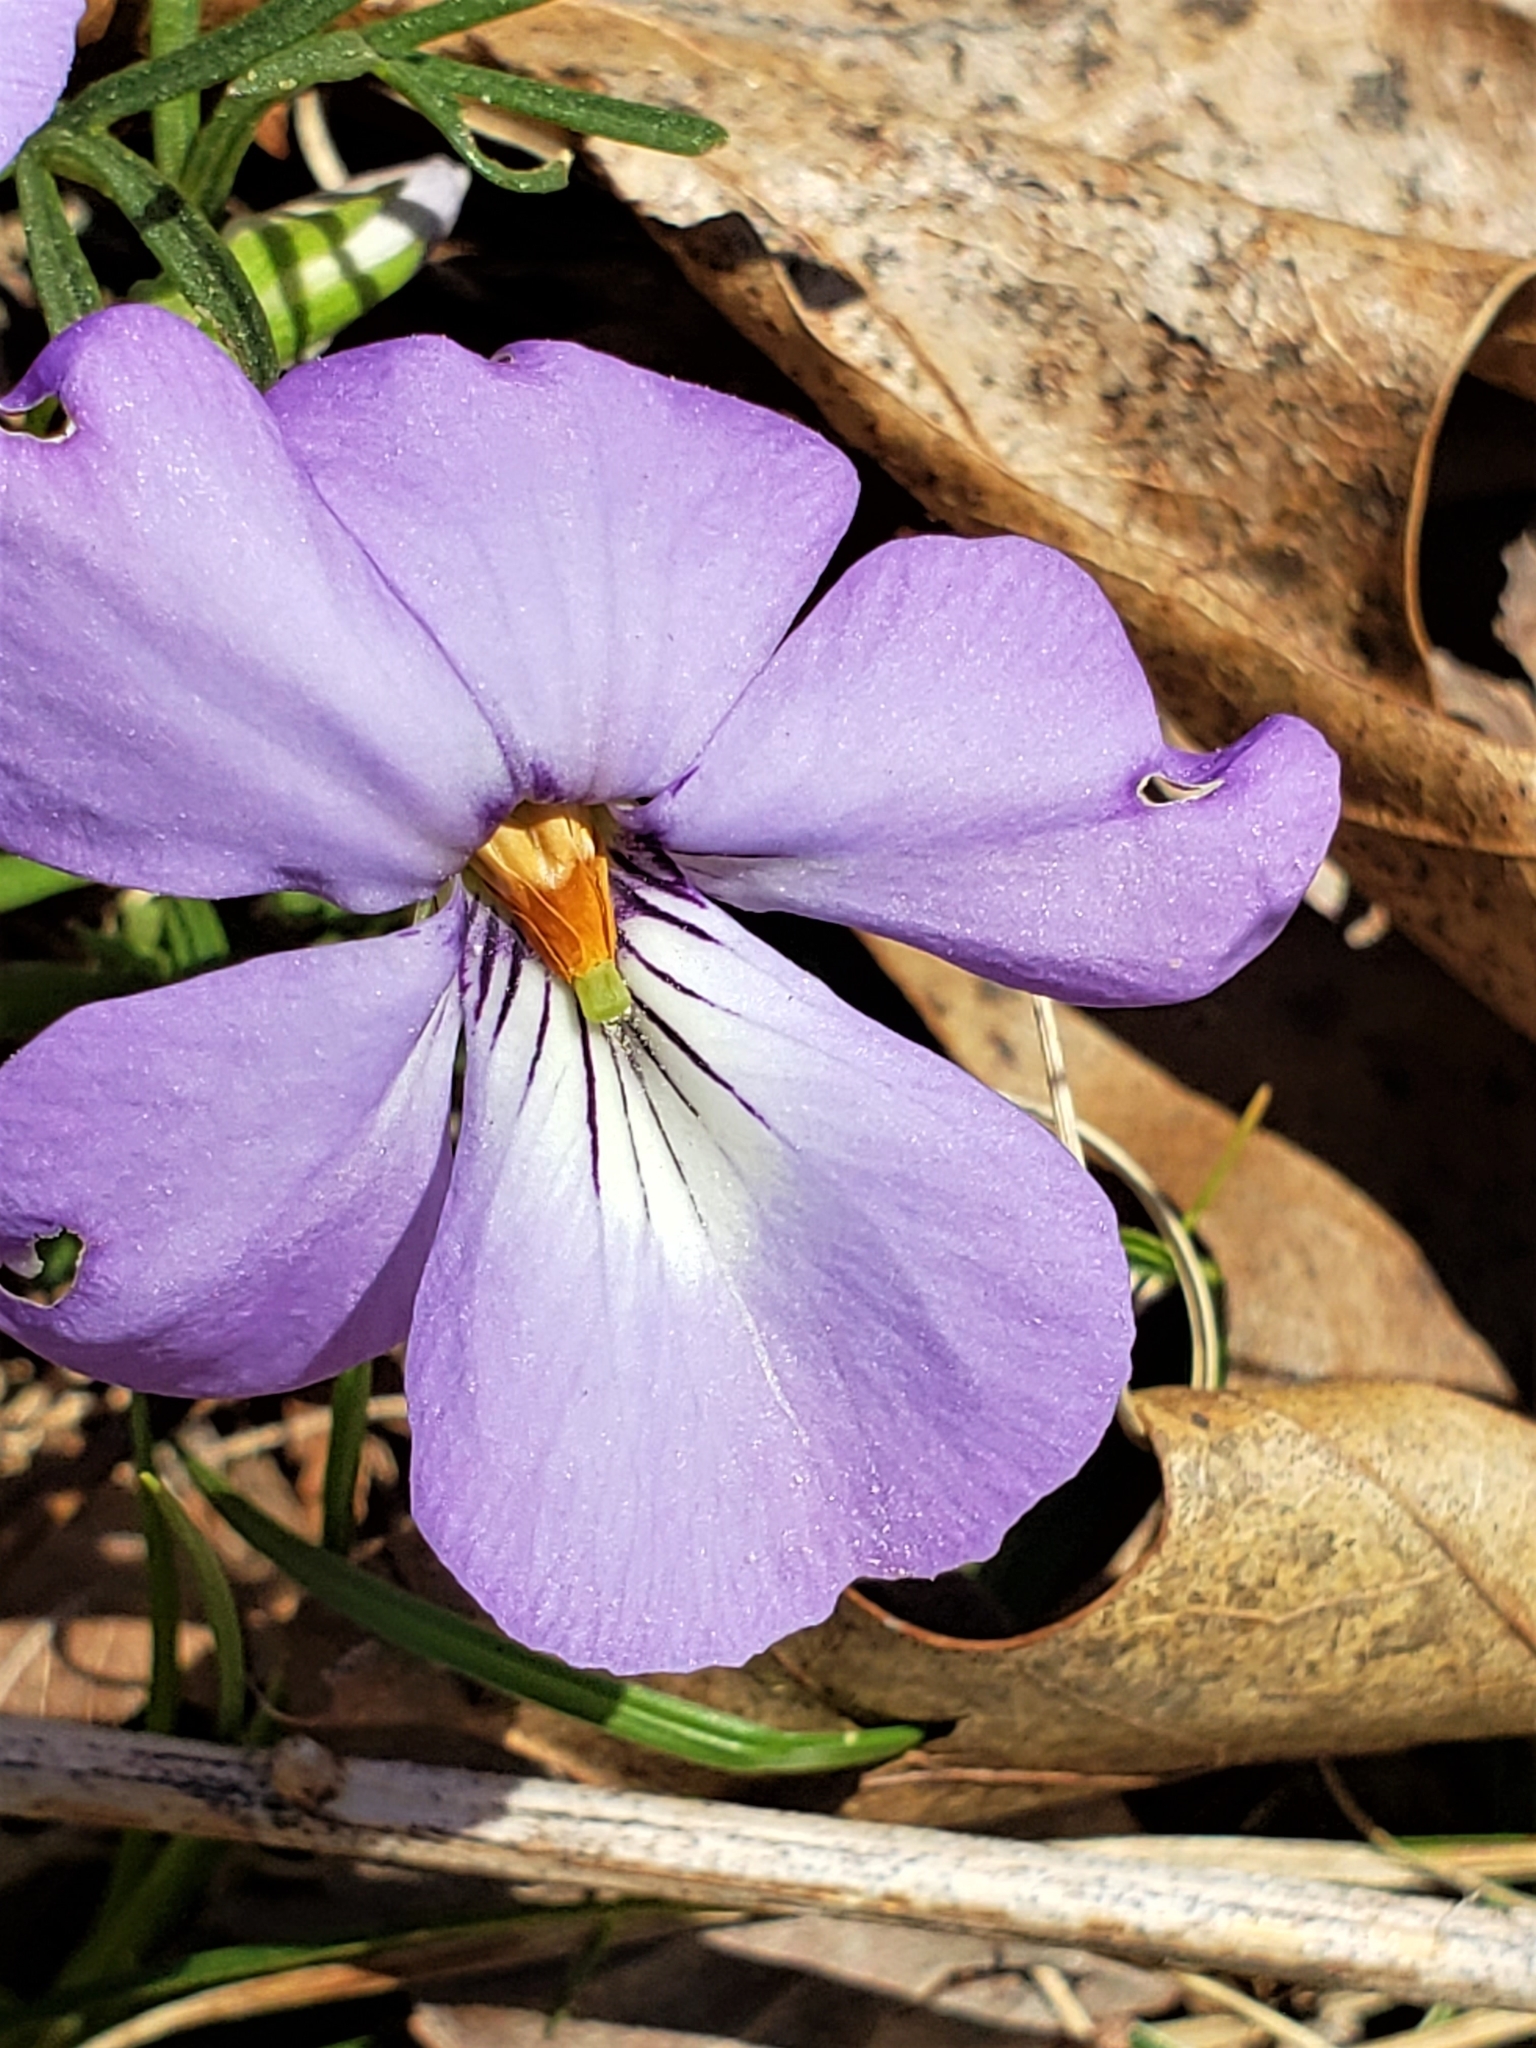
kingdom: Plantae
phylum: Tracheophyta
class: Magnoliopsida
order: Malpighiales
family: Violaceae
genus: Viola
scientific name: Viola pedata
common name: Pansy violet
